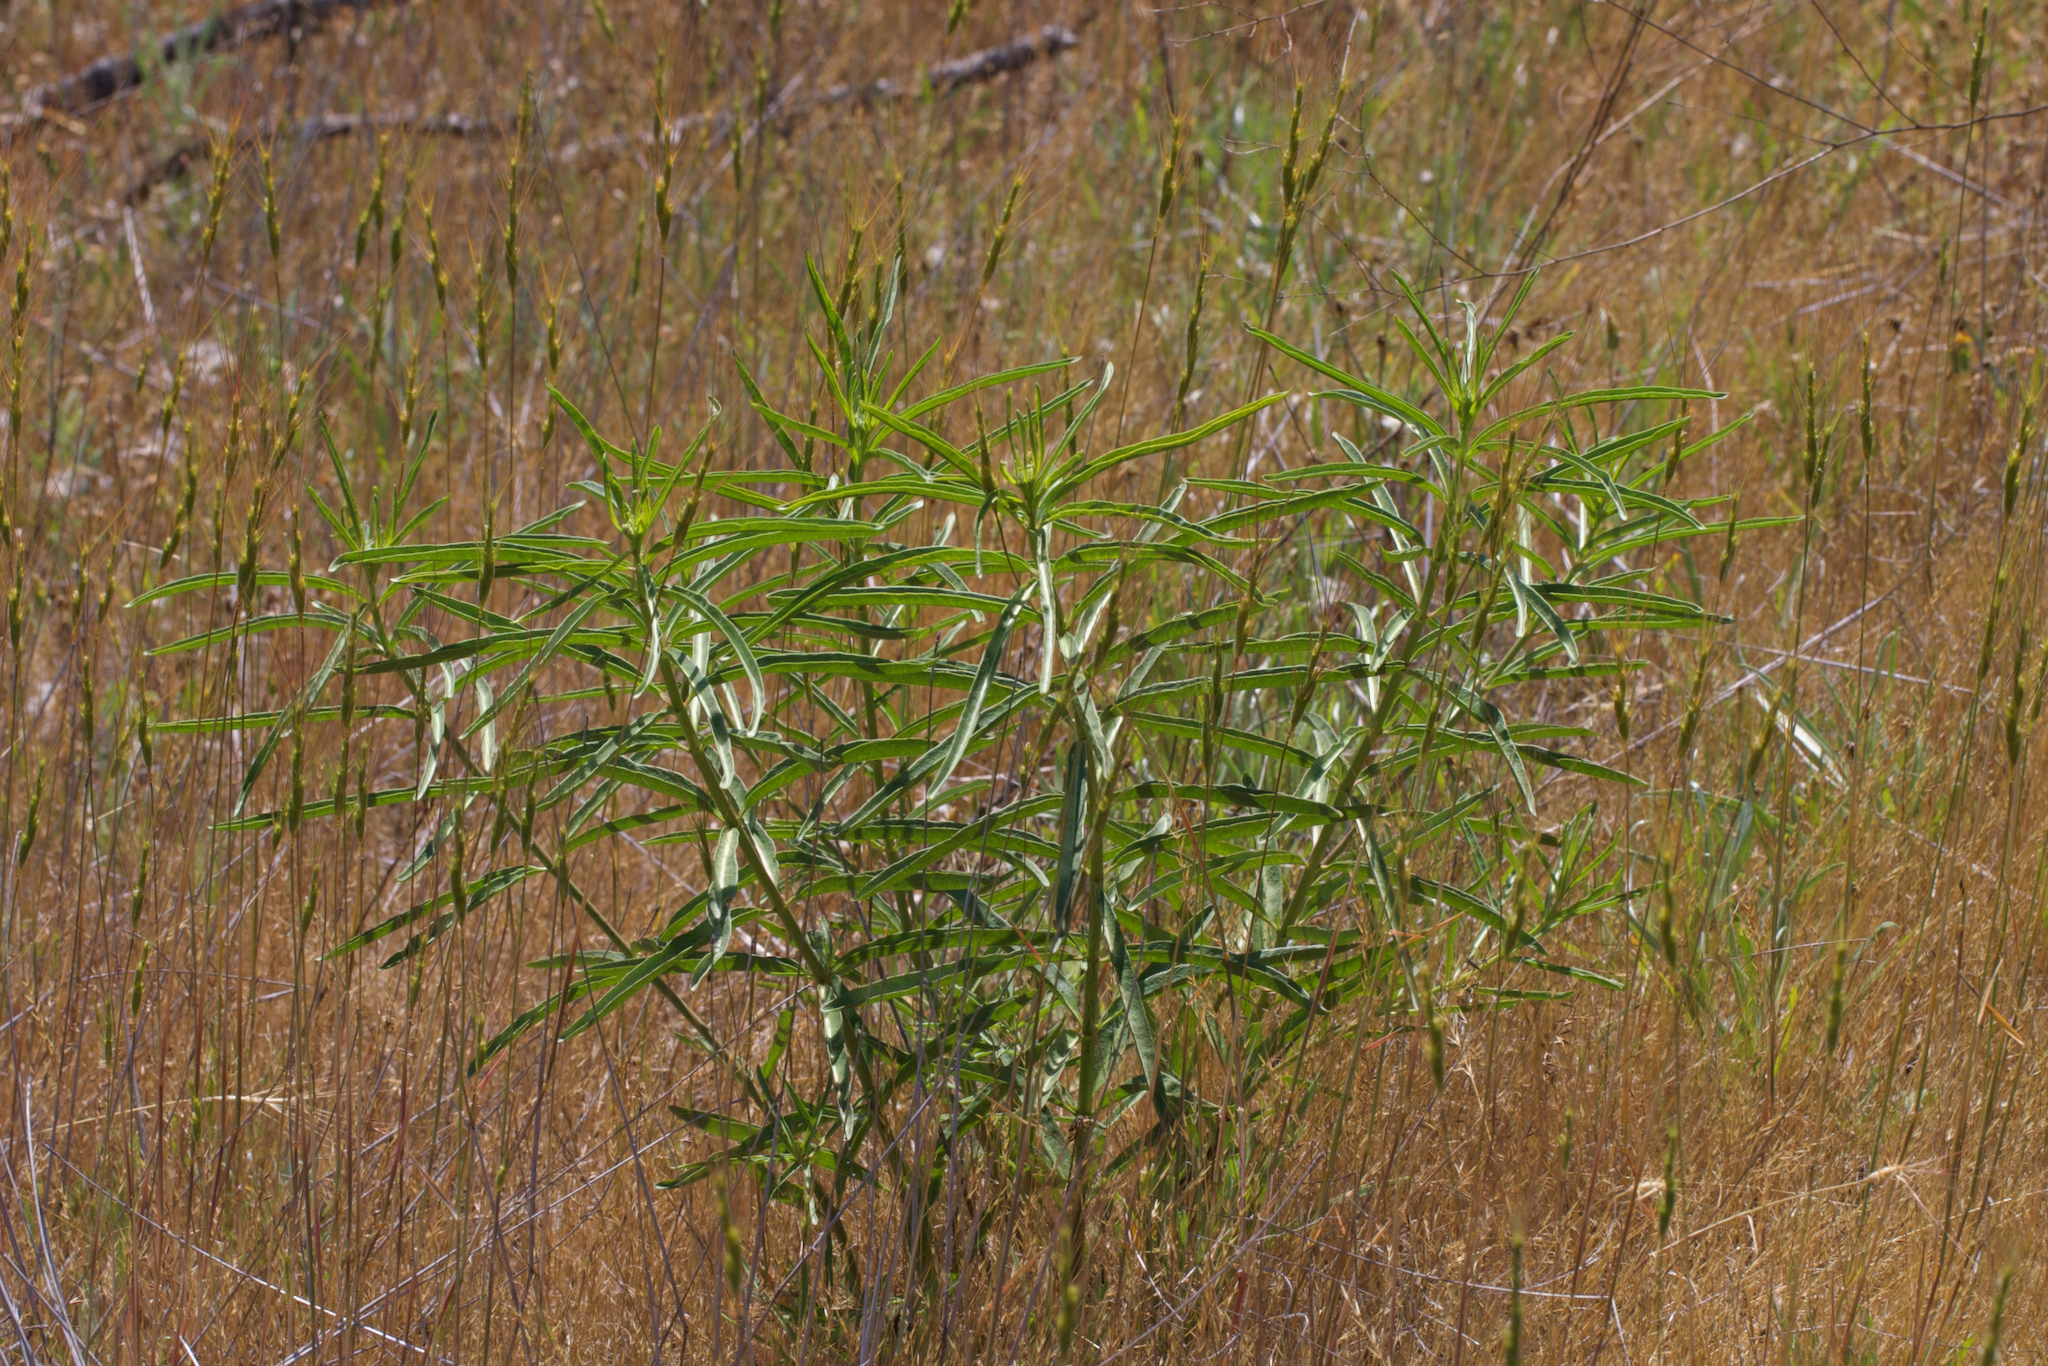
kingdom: Plantae
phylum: Tracheophyta
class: Magnoliopsida
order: Gentianales
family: Apocynaceae
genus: Asclepias
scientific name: Asclepias fascicularis
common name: Mexican milkweed
